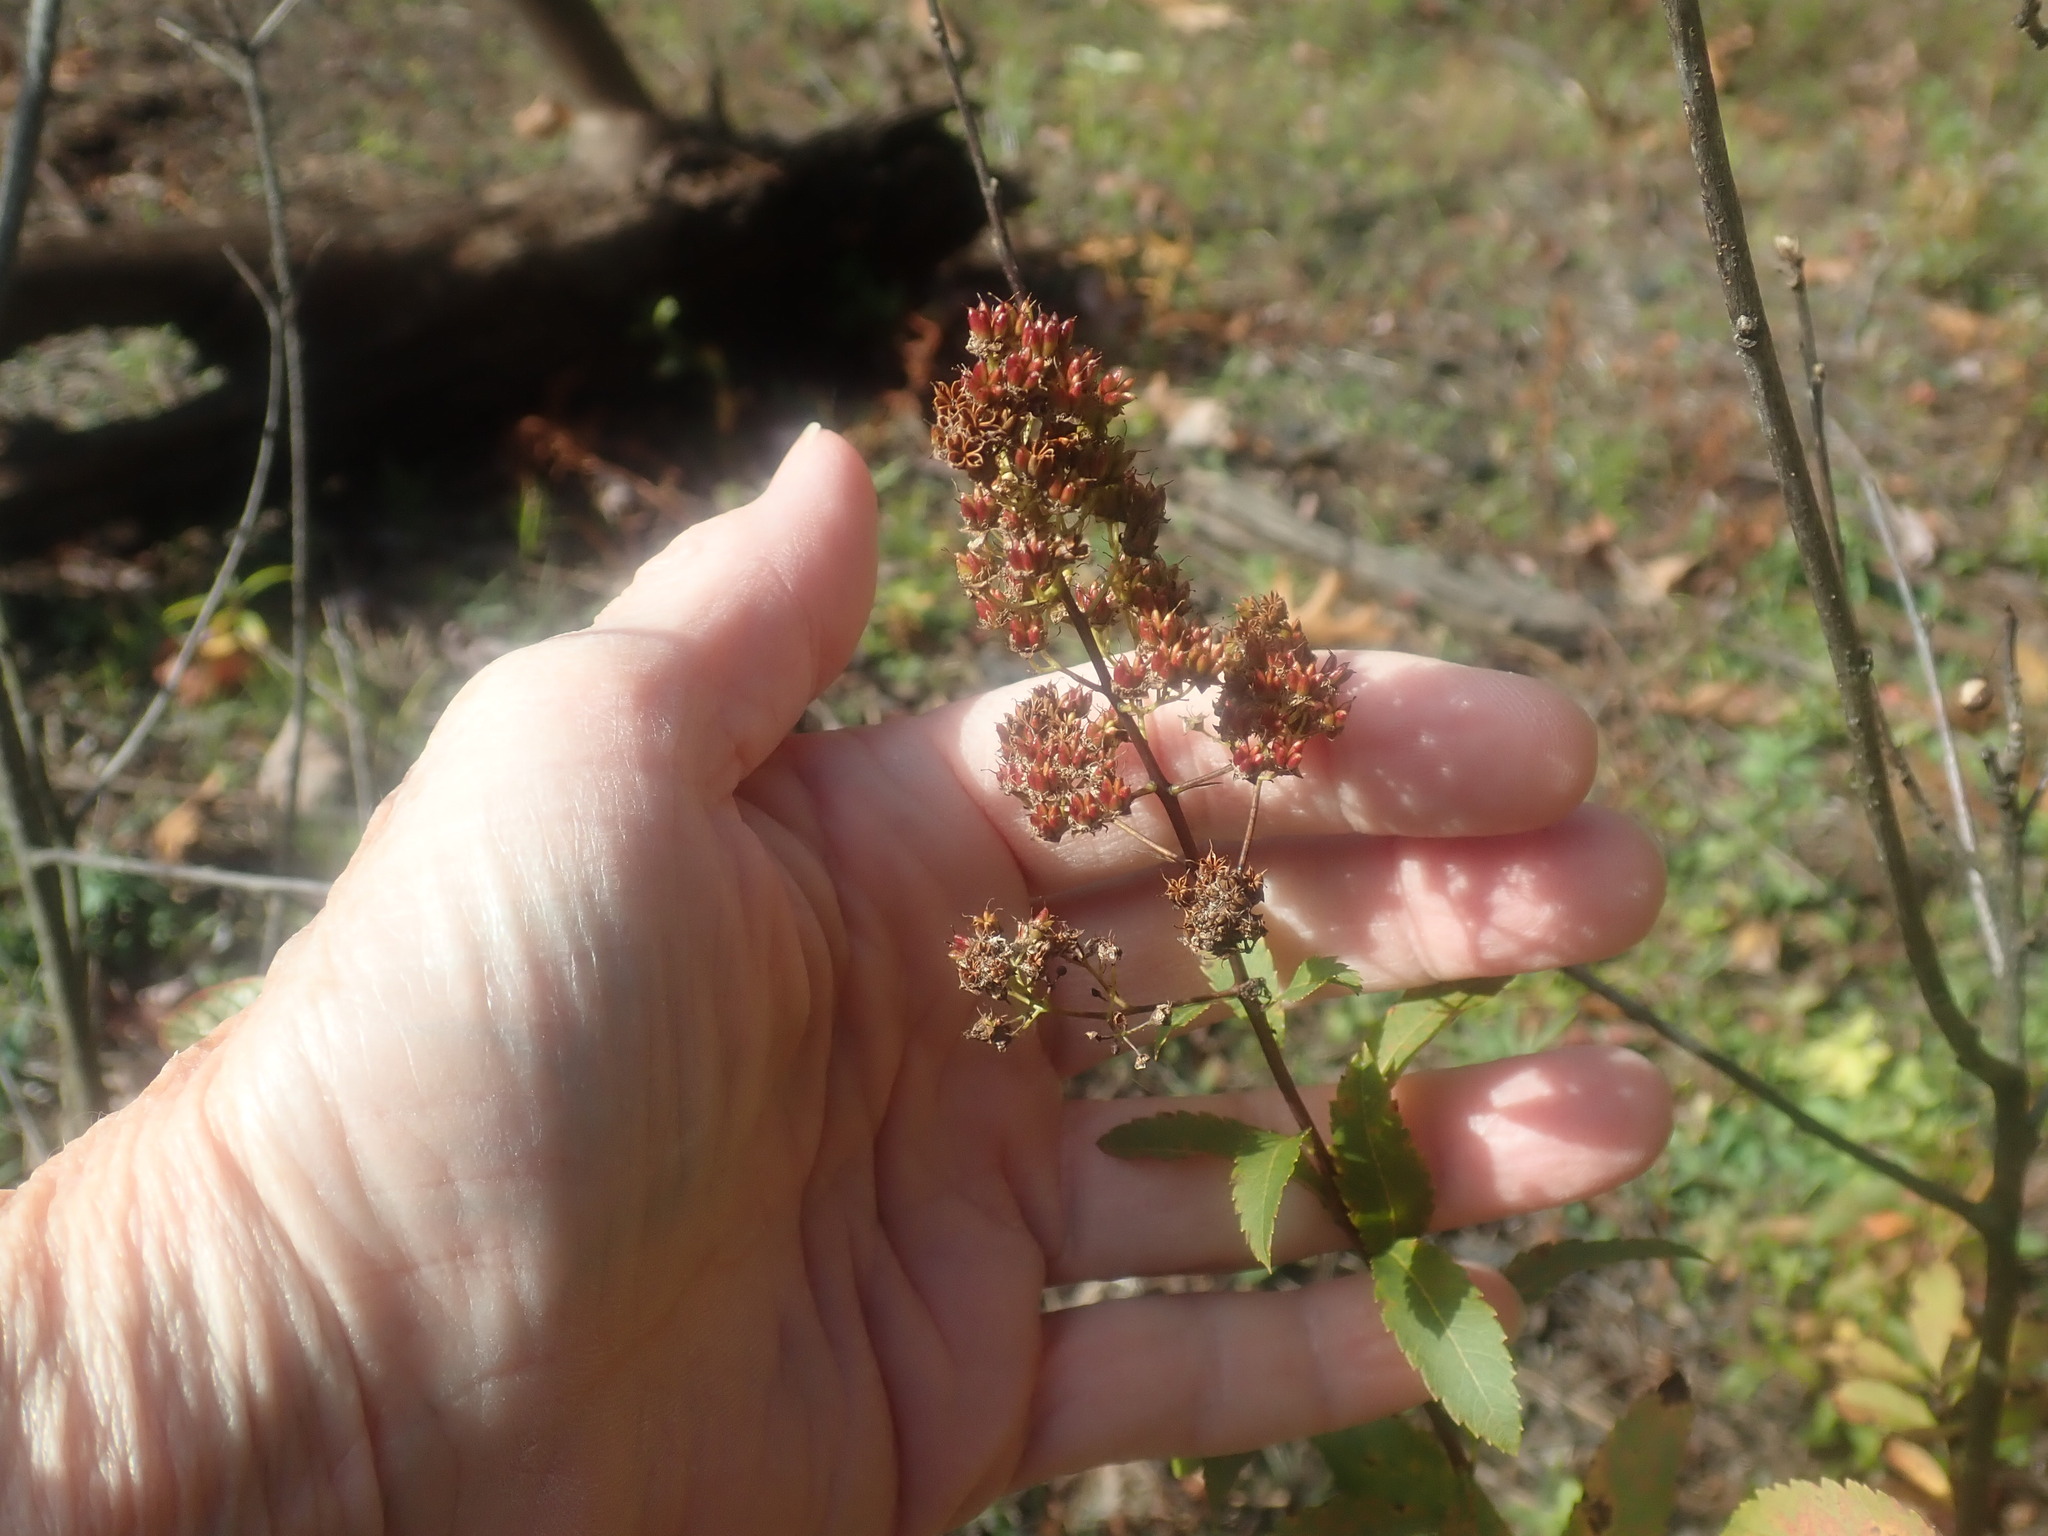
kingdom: Plantae
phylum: Tracheophyta
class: Magnoliopsida
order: Rosales
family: Rosaceae
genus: Spiraea
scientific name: Spiraea alba
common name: Pale bridewort
